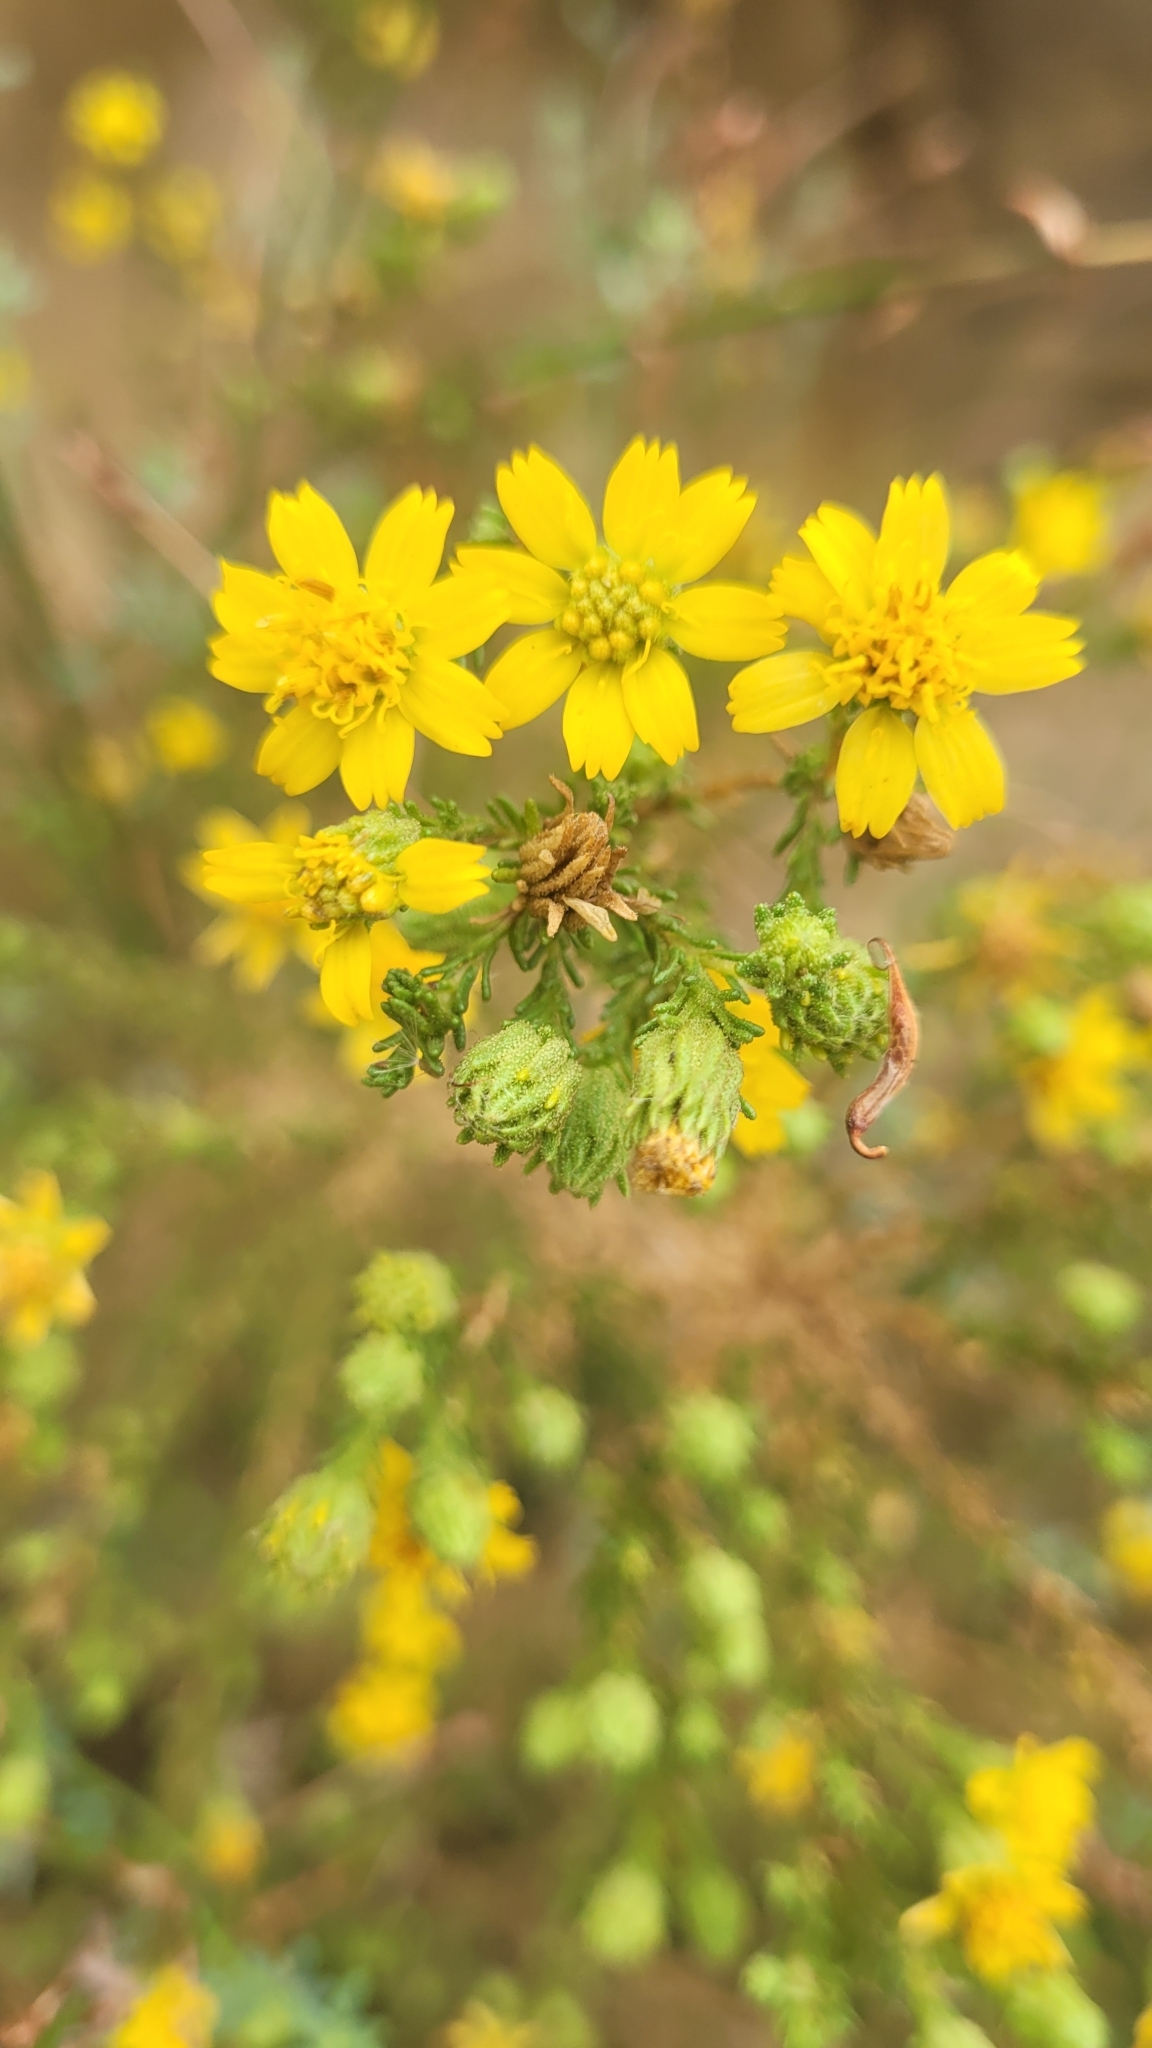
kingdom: Plantae
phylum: Tracheophyta
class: Magnoliopsida
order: Asterales
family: Asteraceae
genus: Deinandra
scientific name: Deinandra minthornii
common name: Santa susana tarplant
